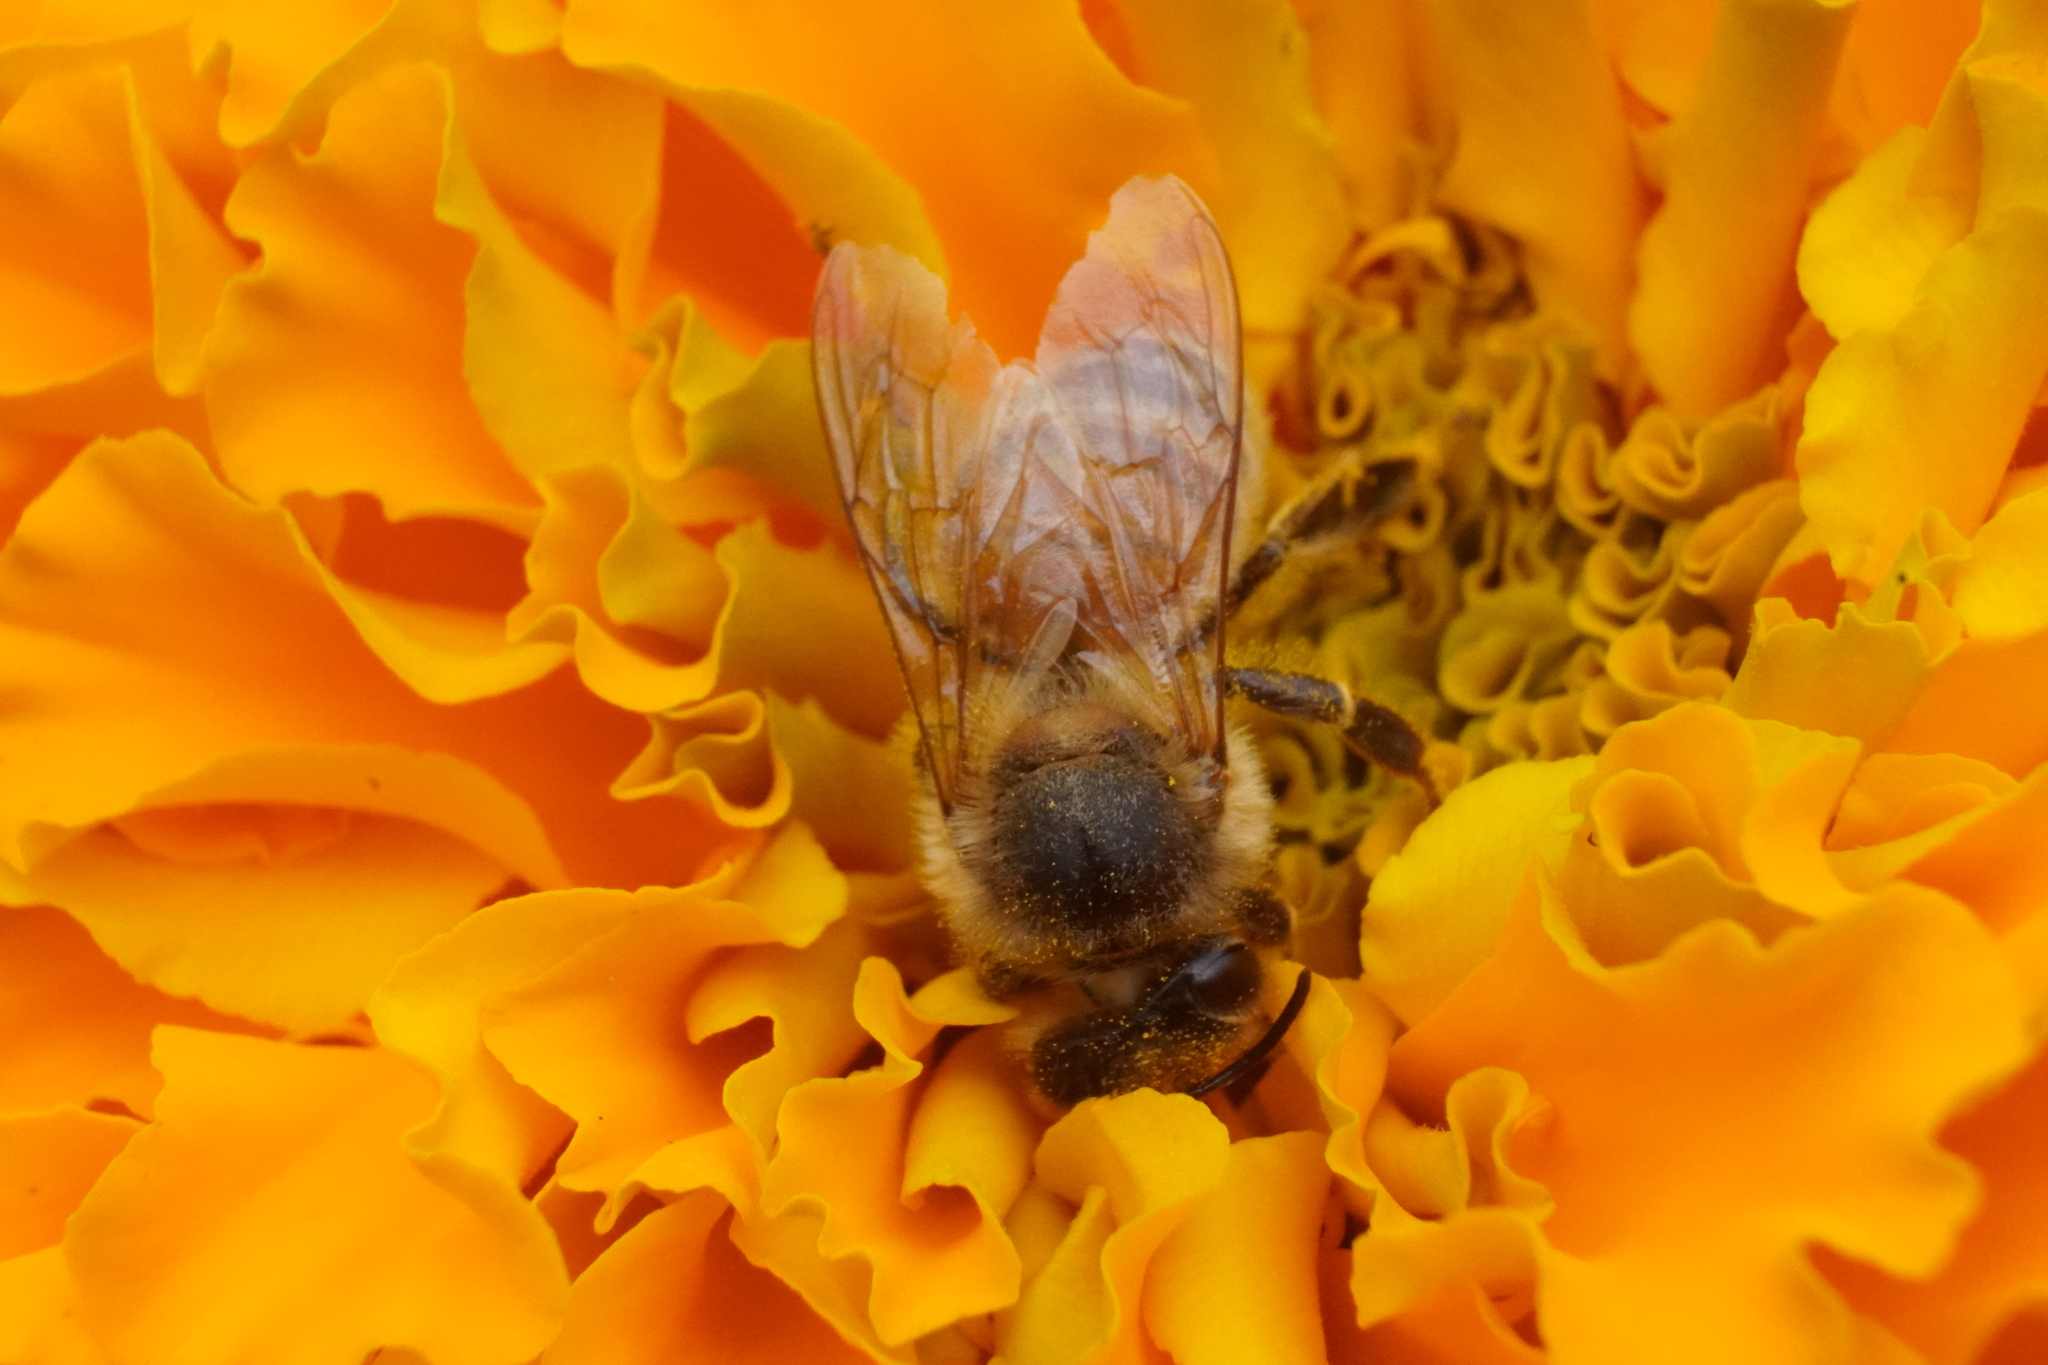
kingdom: Animalia
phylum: Arthropoda
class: Insecta
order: Hymenoptera
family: Apidae
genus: Apis
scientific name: Apis mellifera
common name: Honey bee
